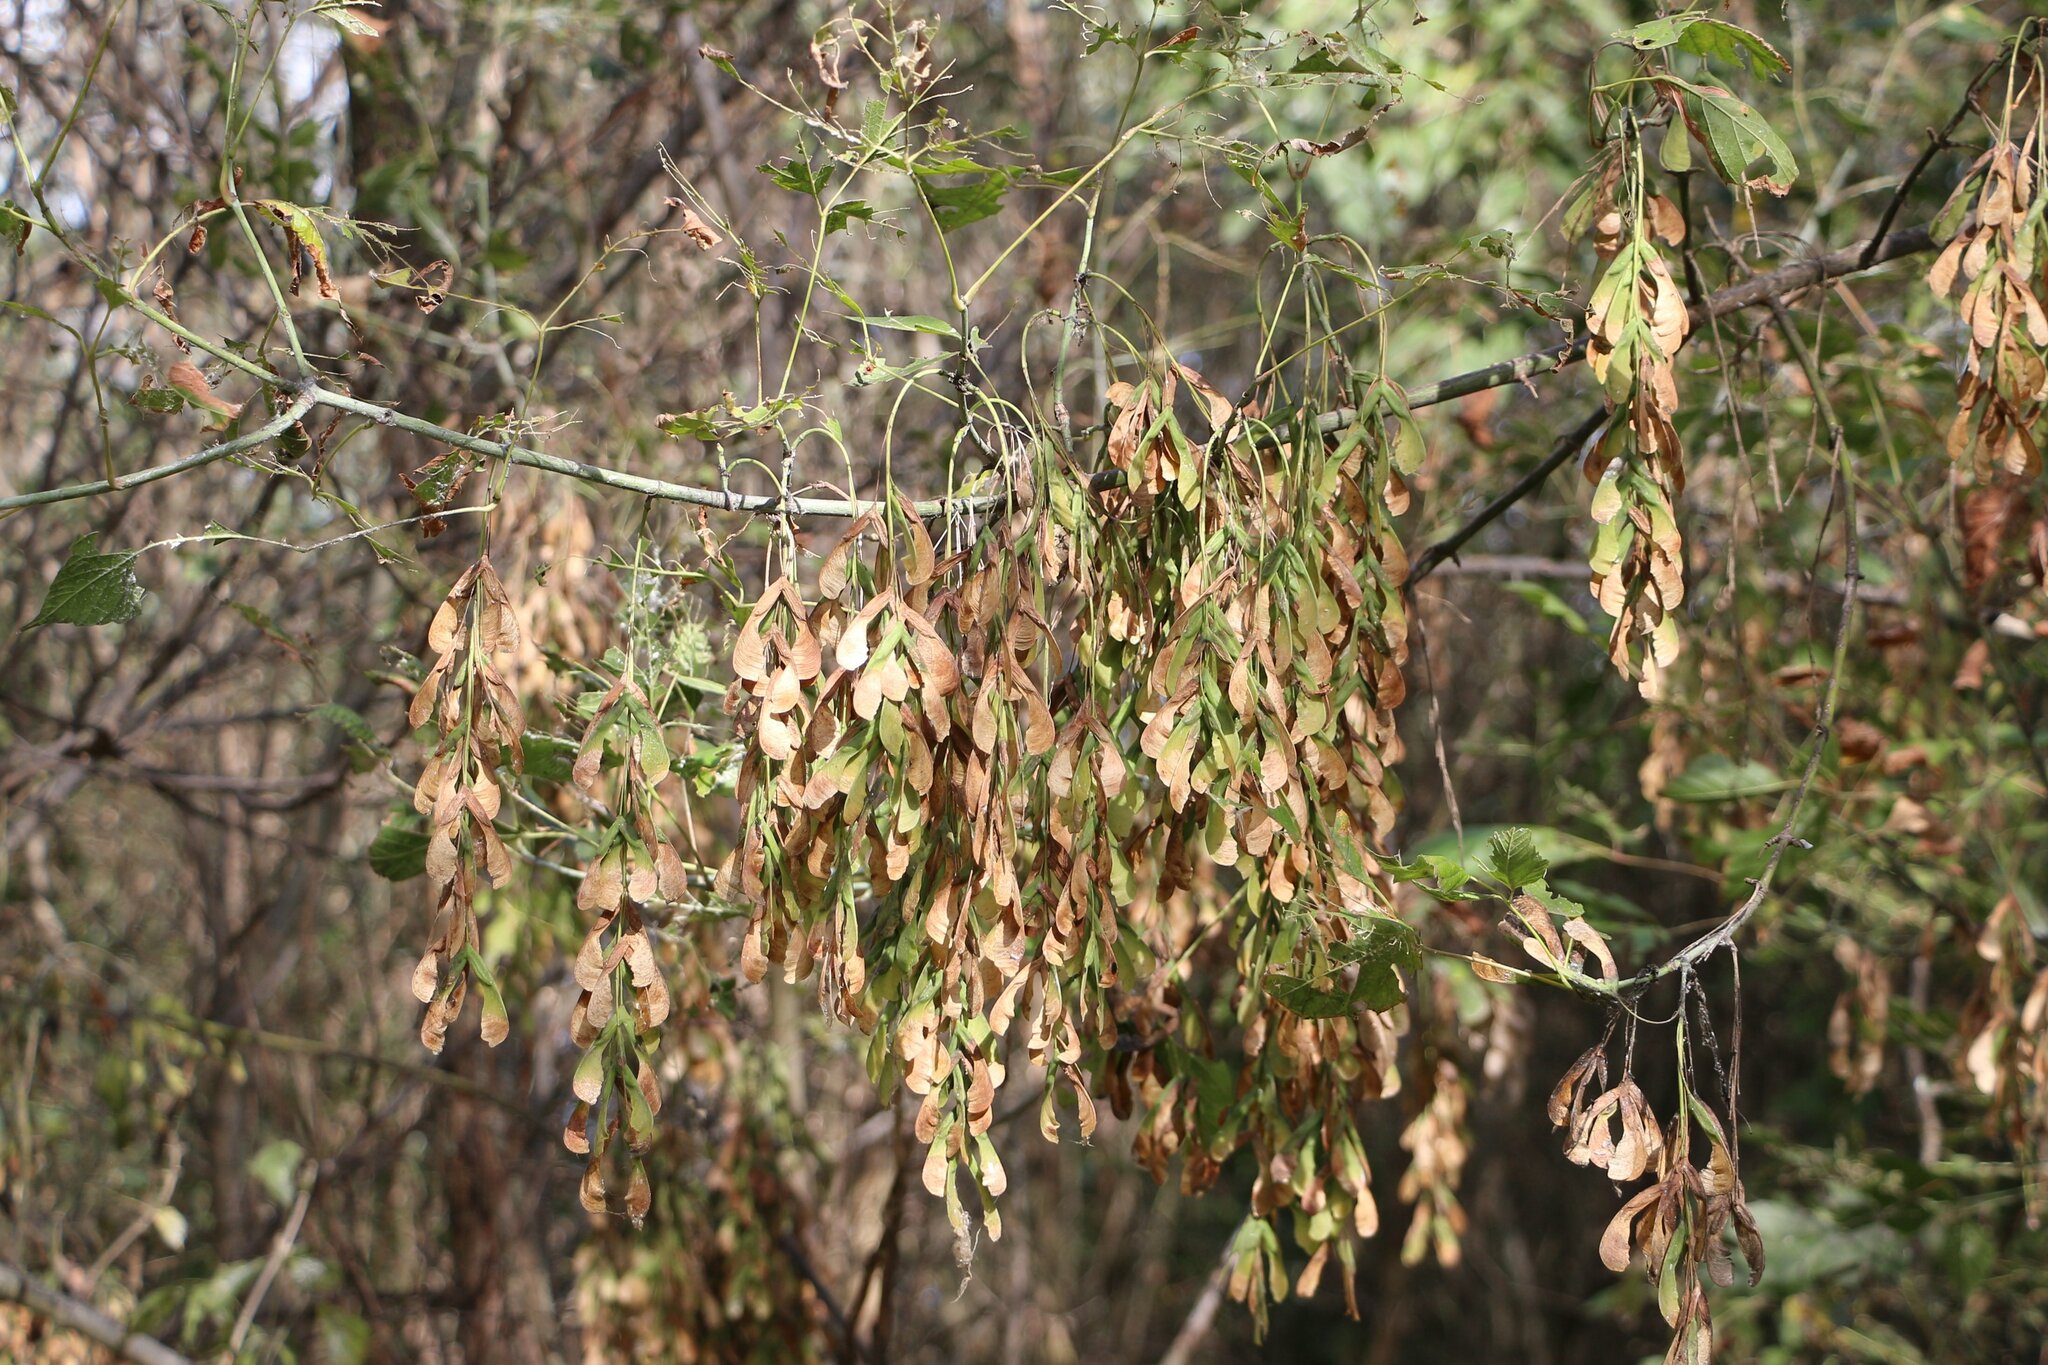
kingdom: Plantae
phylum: Tracheophyta
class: Magnoliopsida
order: Sapindales
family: Sapindaceae
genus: Acer
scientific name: Acer negundo
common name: Ashleaf maple
